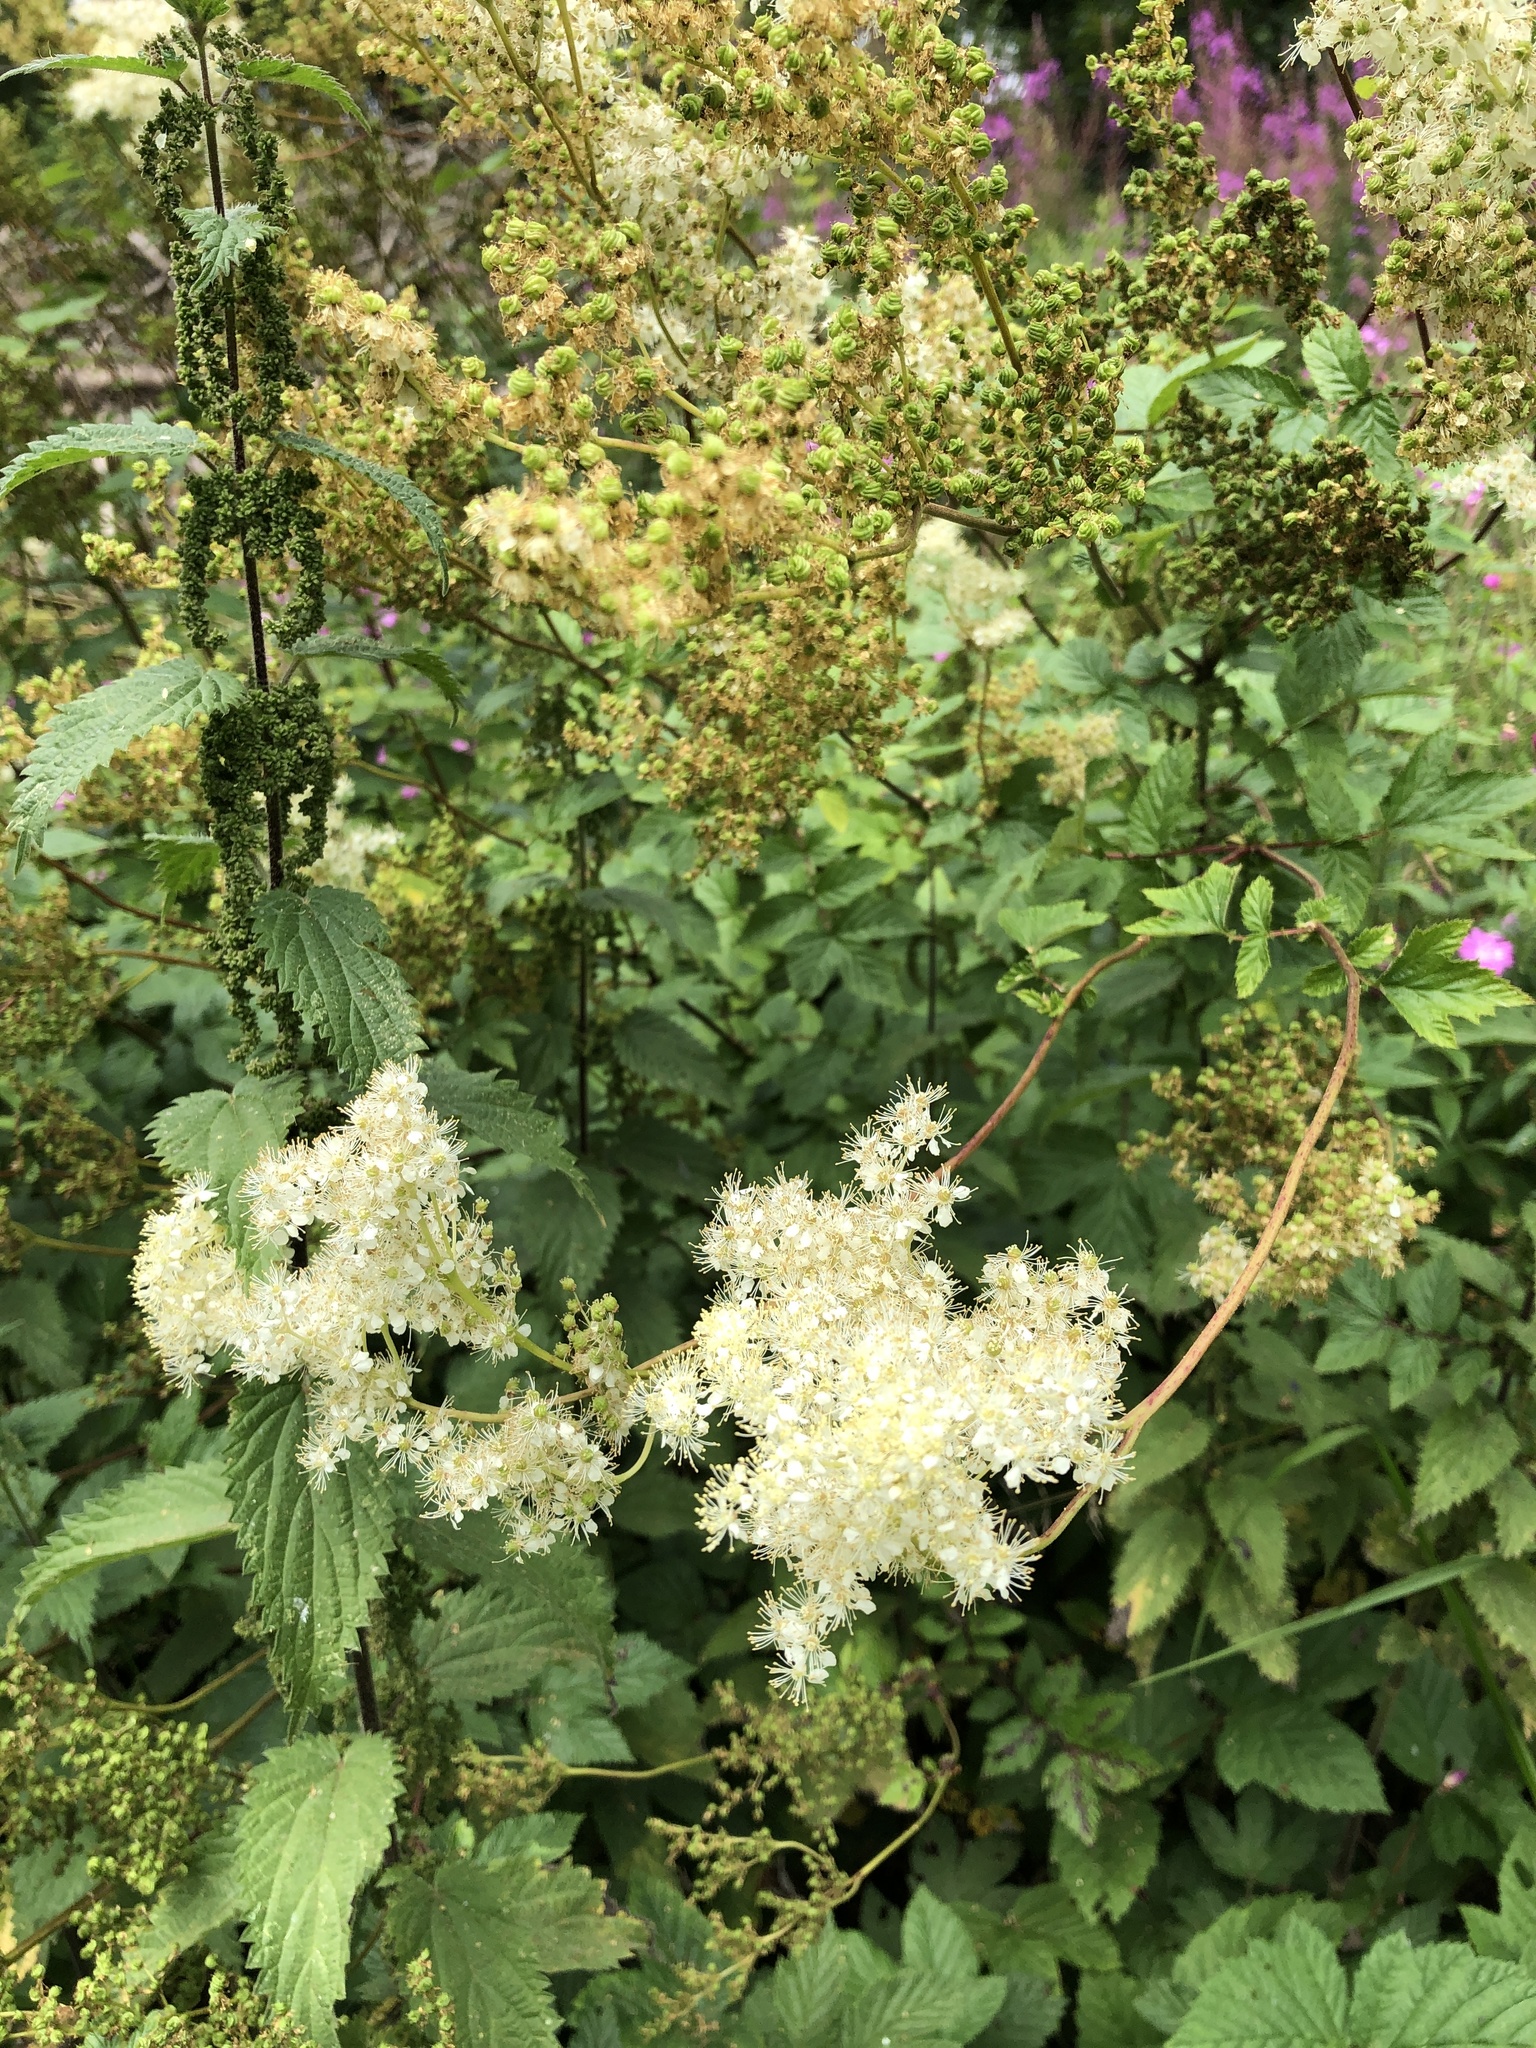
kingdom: Plantae
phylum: Tracheophyta
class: Magnoliopsida
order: Rosales
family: Rosaceae
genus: Filipendula
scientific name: Filipendula ulmaria
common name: Meadowsweet
